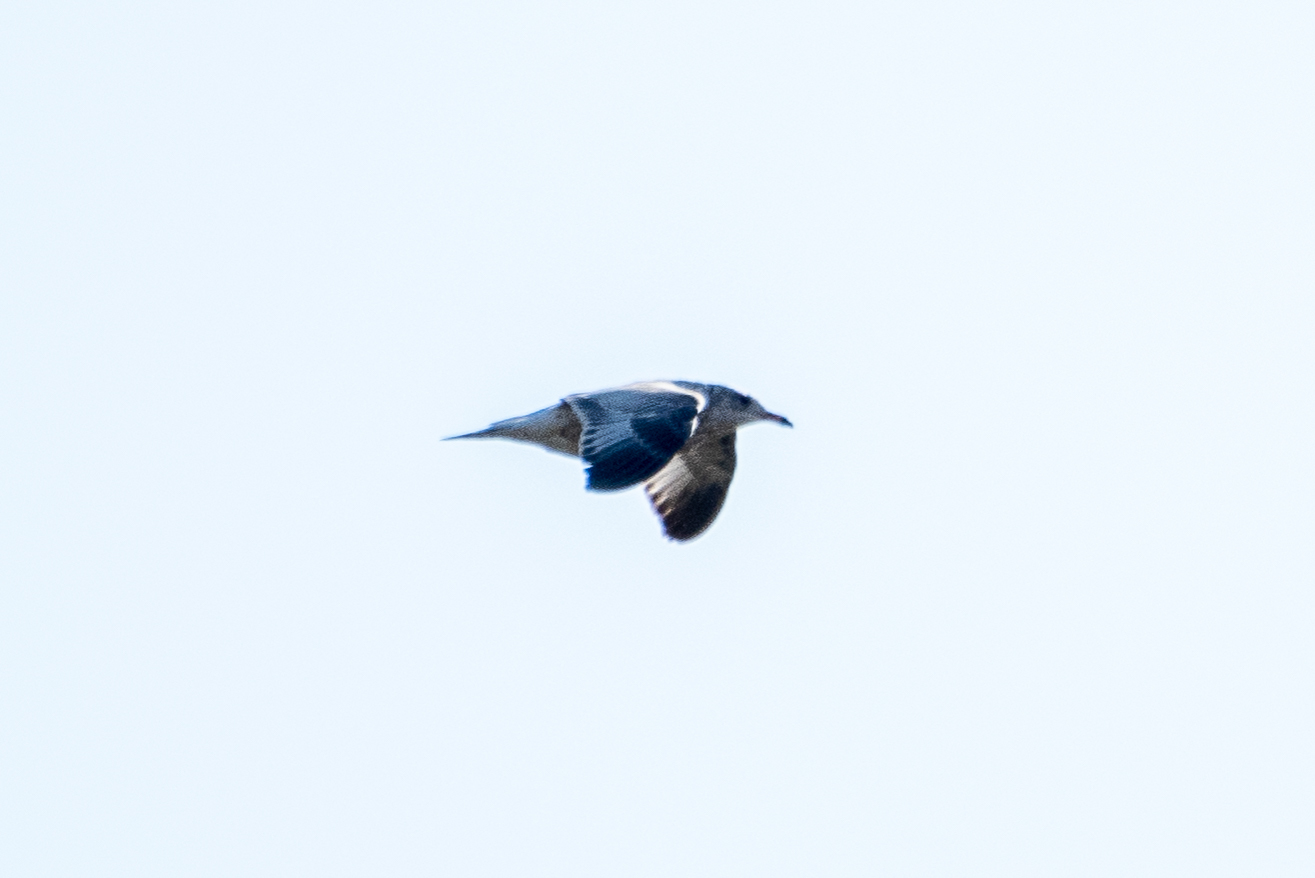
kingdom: Animalia
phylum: Chordata
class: Aves
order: Charadriiformes
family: Laridae
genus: Larus
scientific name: Larus delawarensis
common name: Ring-billed gull
